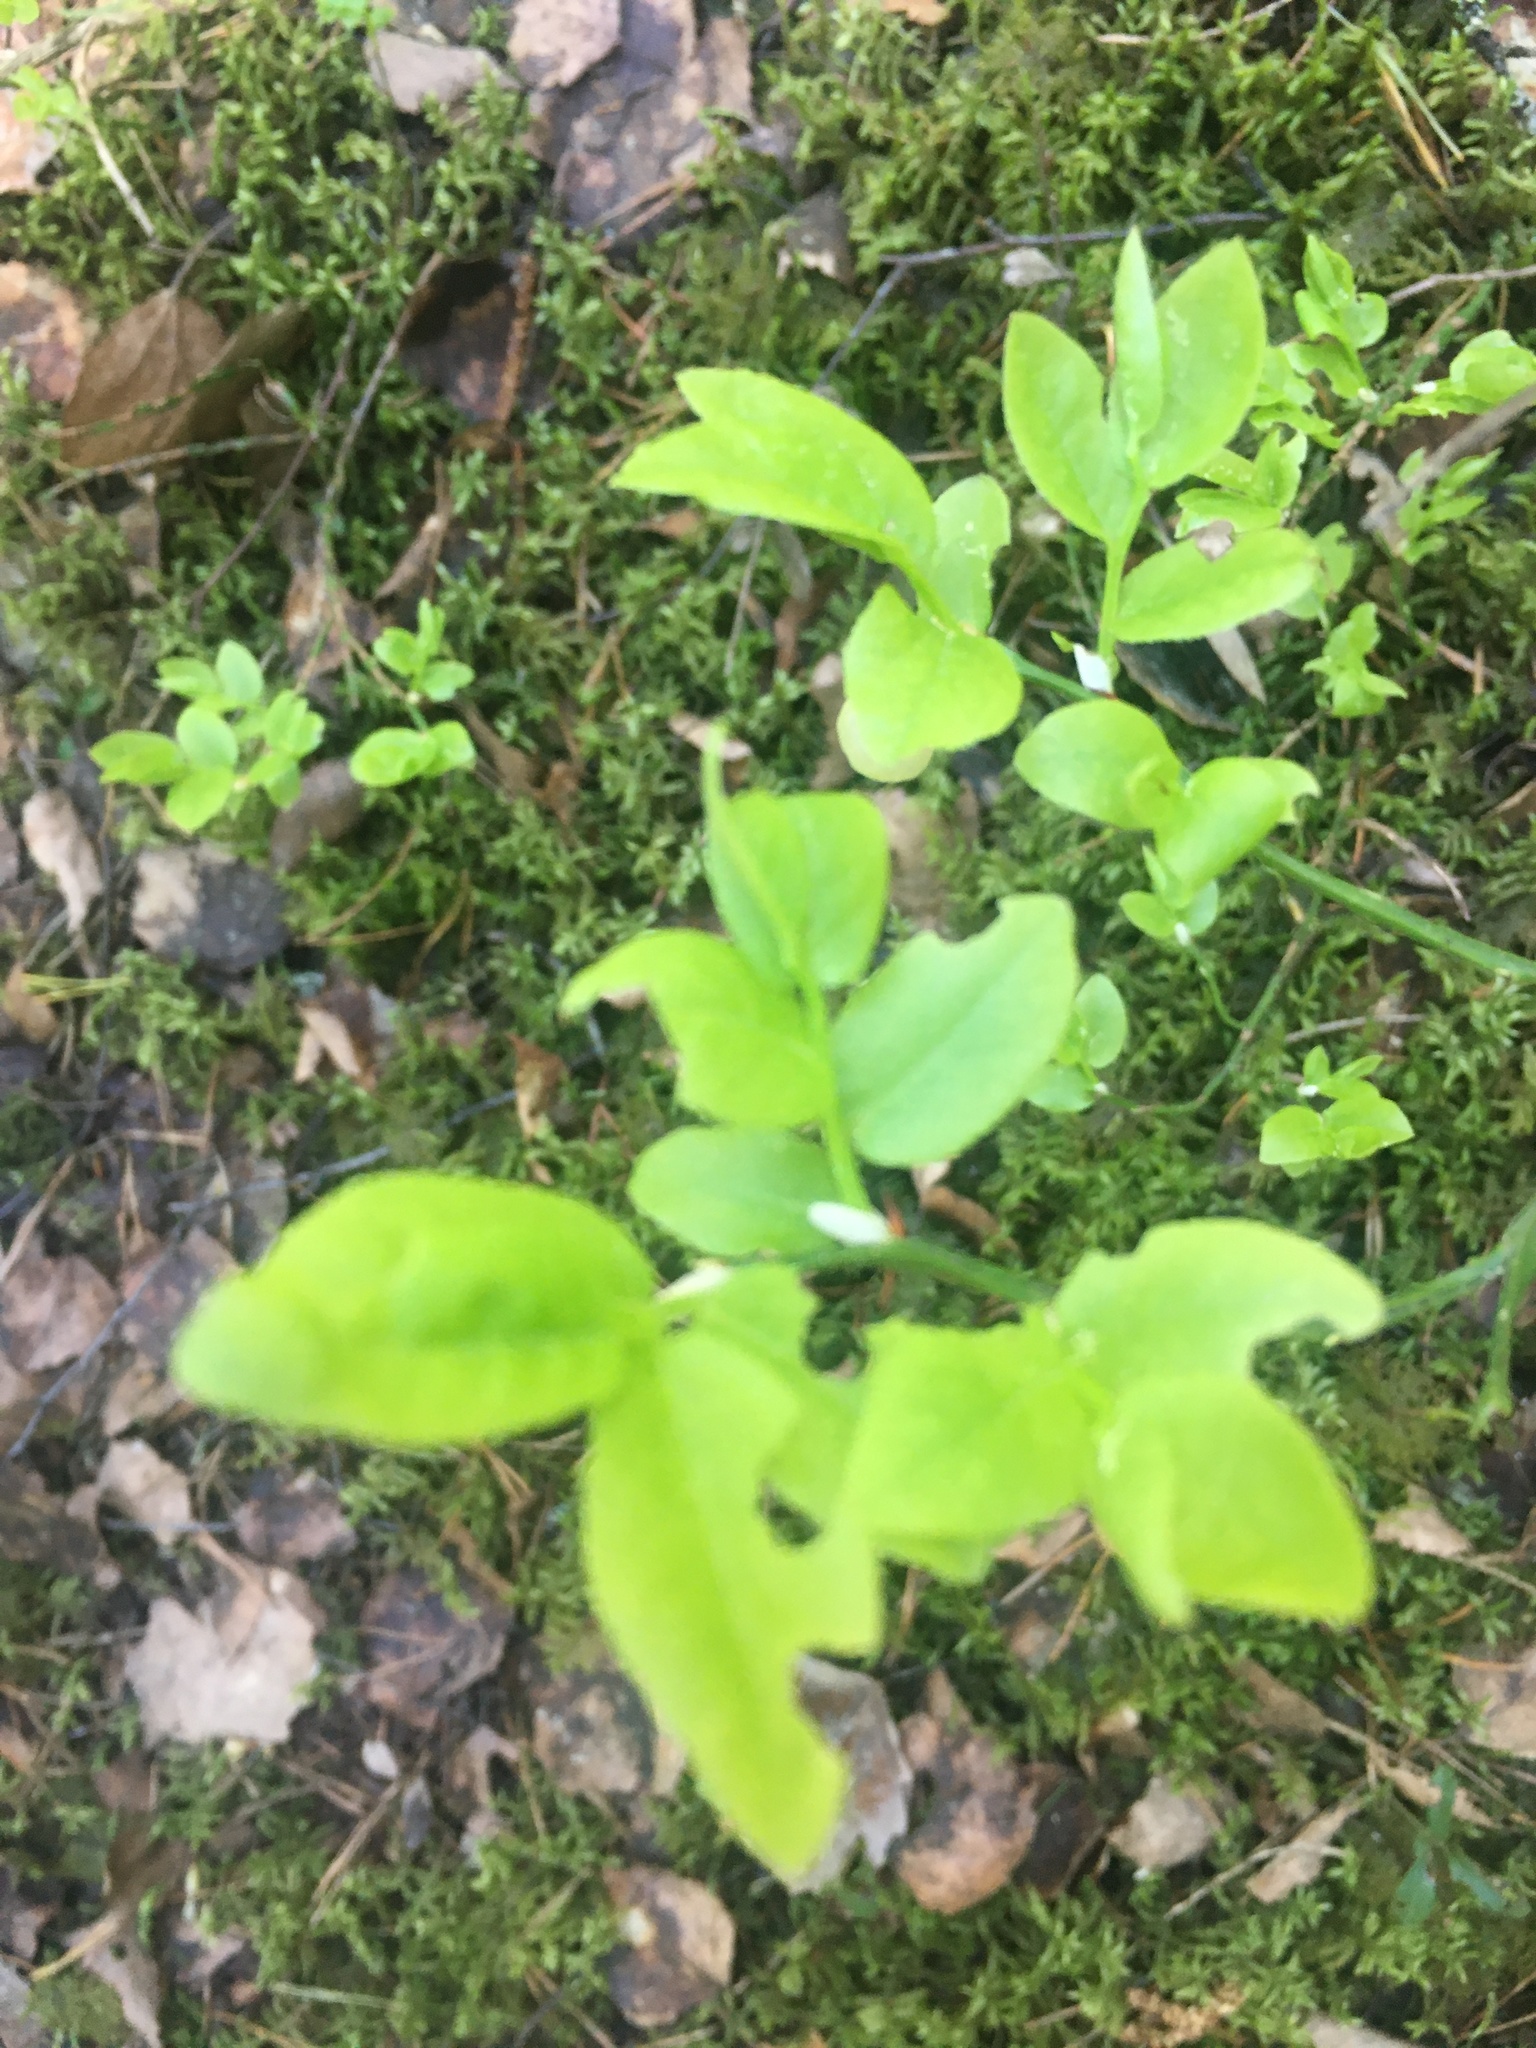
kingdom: Plantae
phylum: Tracheophyta
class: Magnoliopsida
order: Ericales
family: Ericaceae
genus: Vaccinium
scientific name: Vaccinium myrtillus
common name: Bilberry
